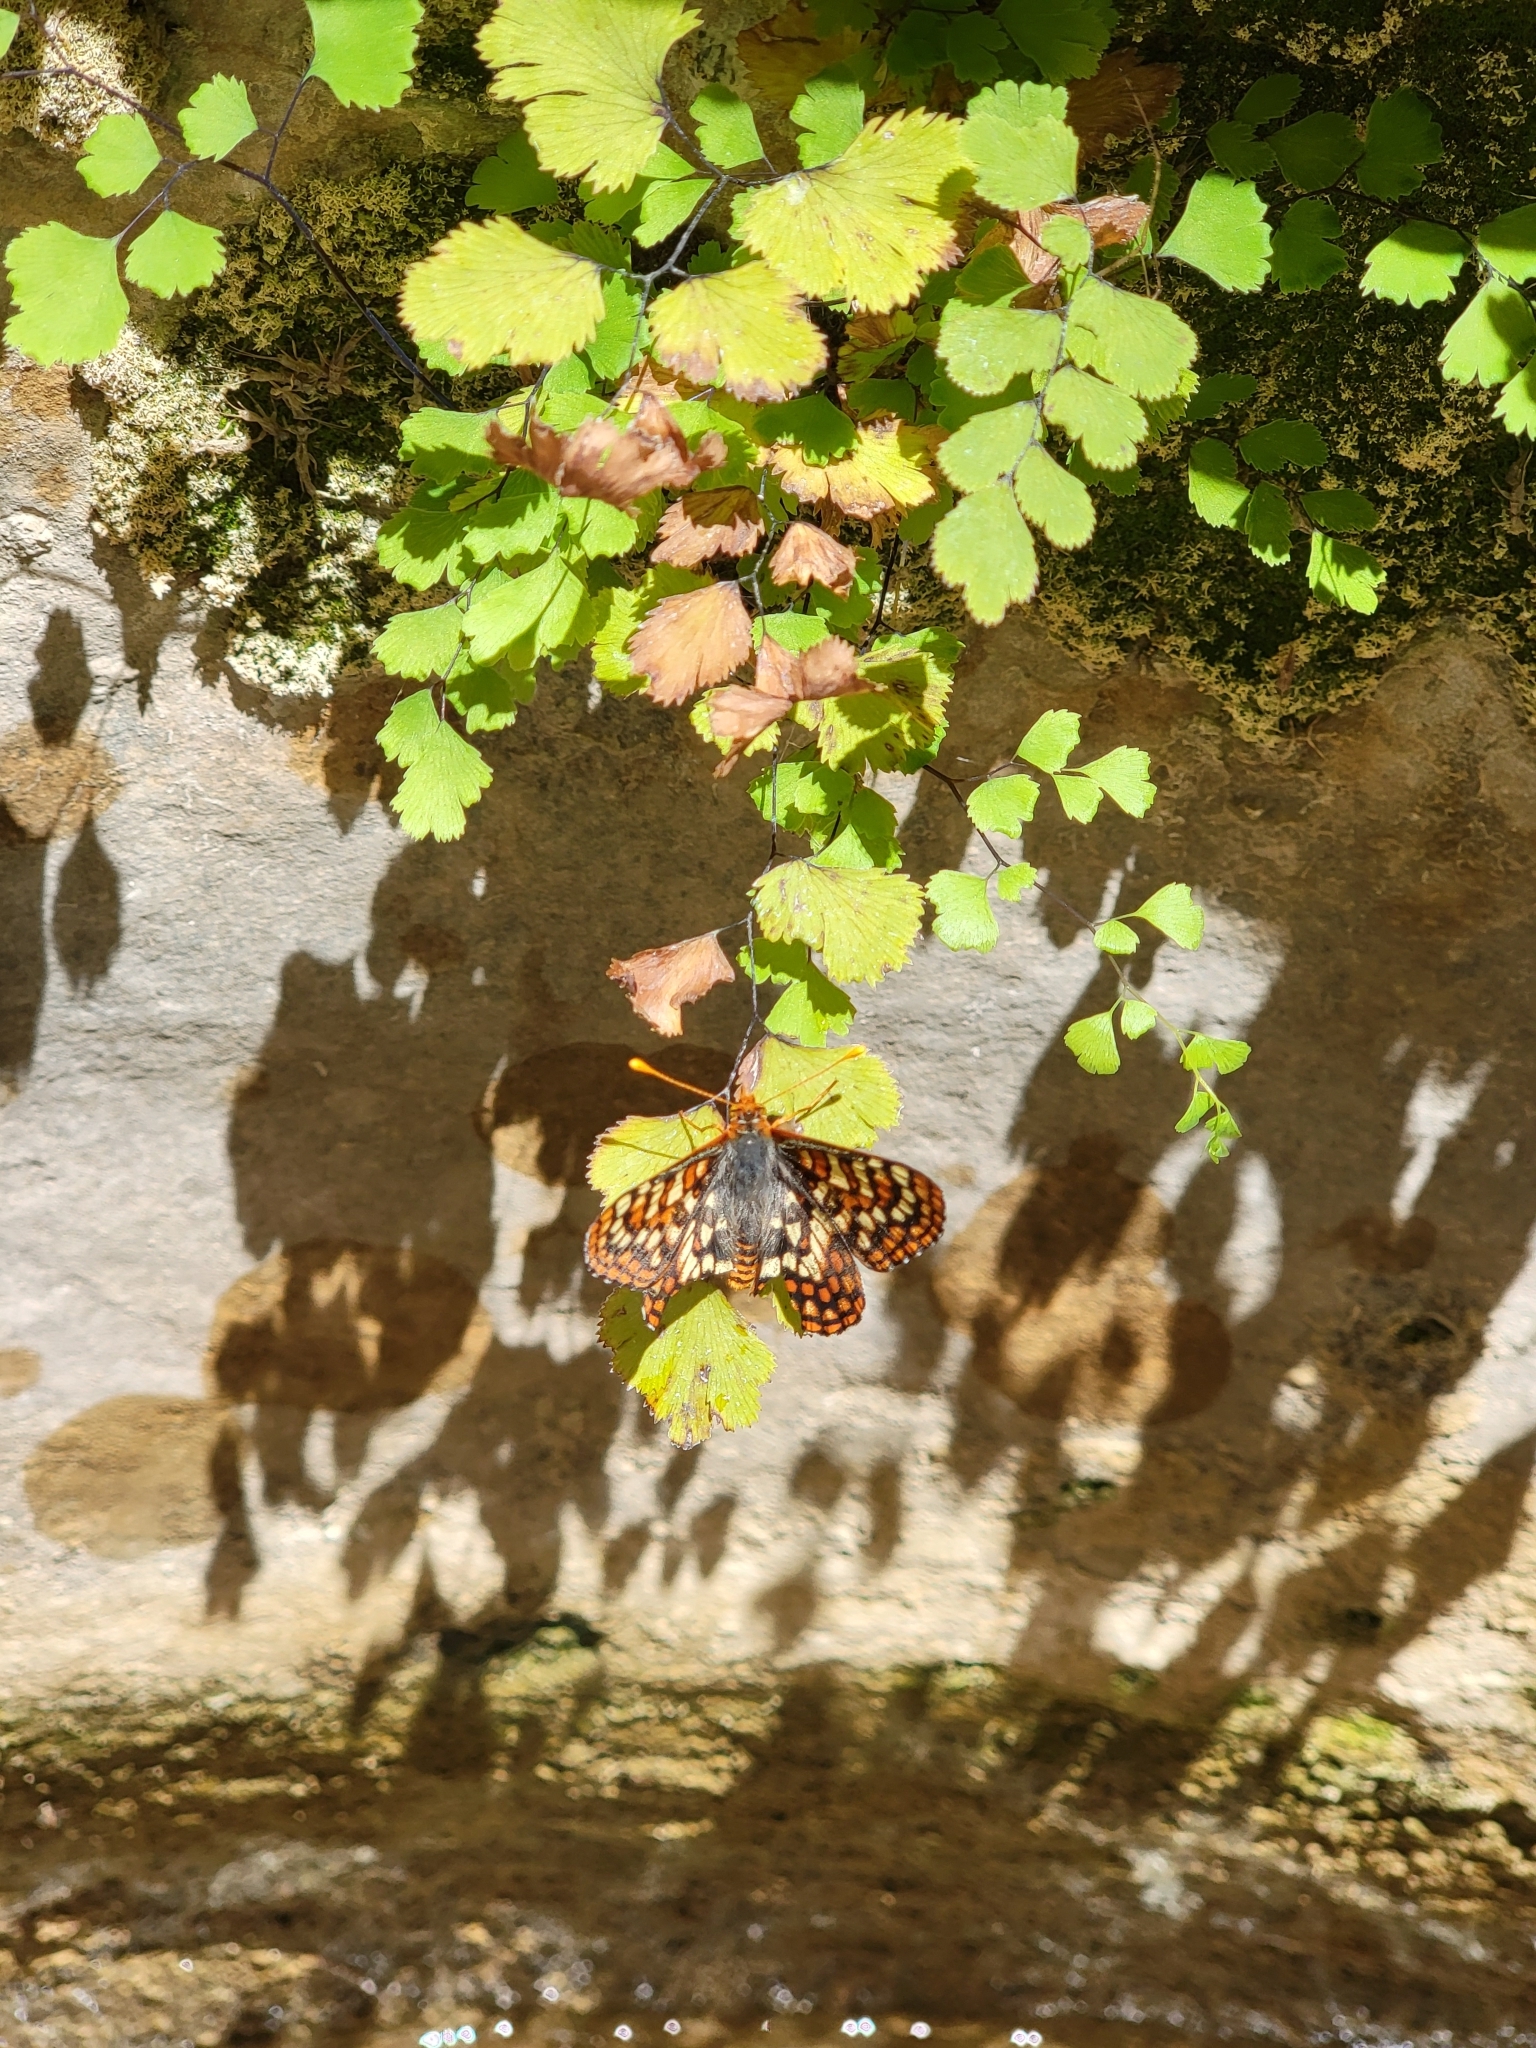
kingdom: Animalia
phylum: Arthropoda
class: Insecta
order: Lepidoptera
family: Nymphalidae
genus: Occidryas
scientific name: Occidryas anicia
